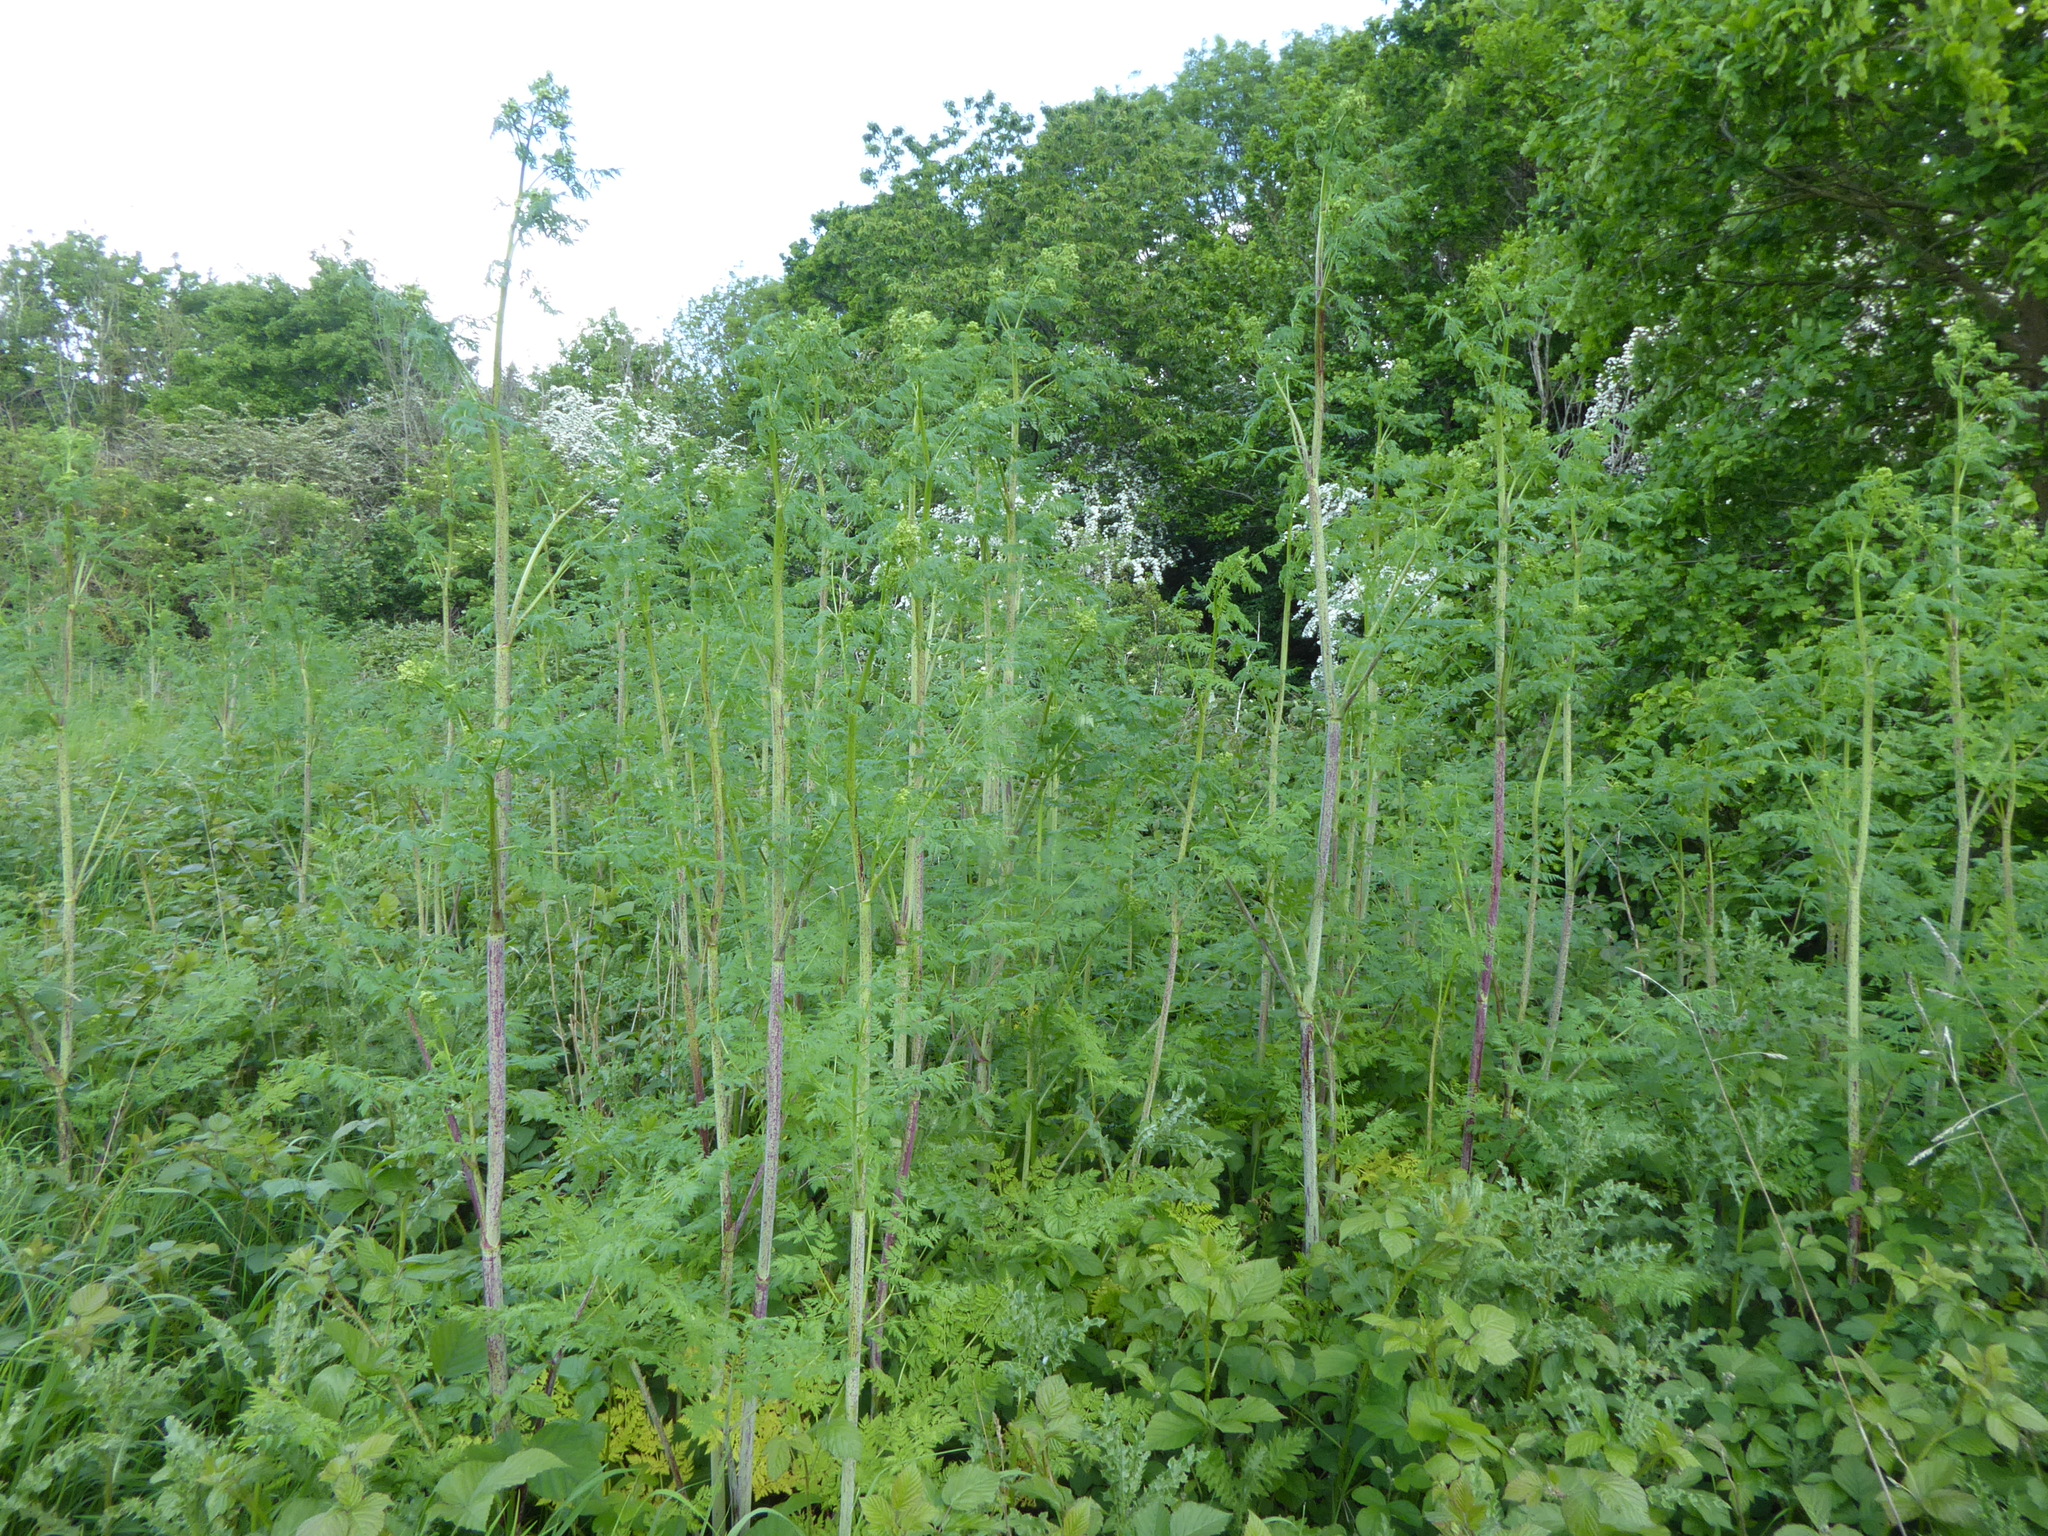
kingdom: Plantae
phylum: Tracheophyta
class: Magnoliopsida
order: Apiales
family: Apiaceae
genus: Conium
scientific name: Conium maculatum
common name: Hemlock
